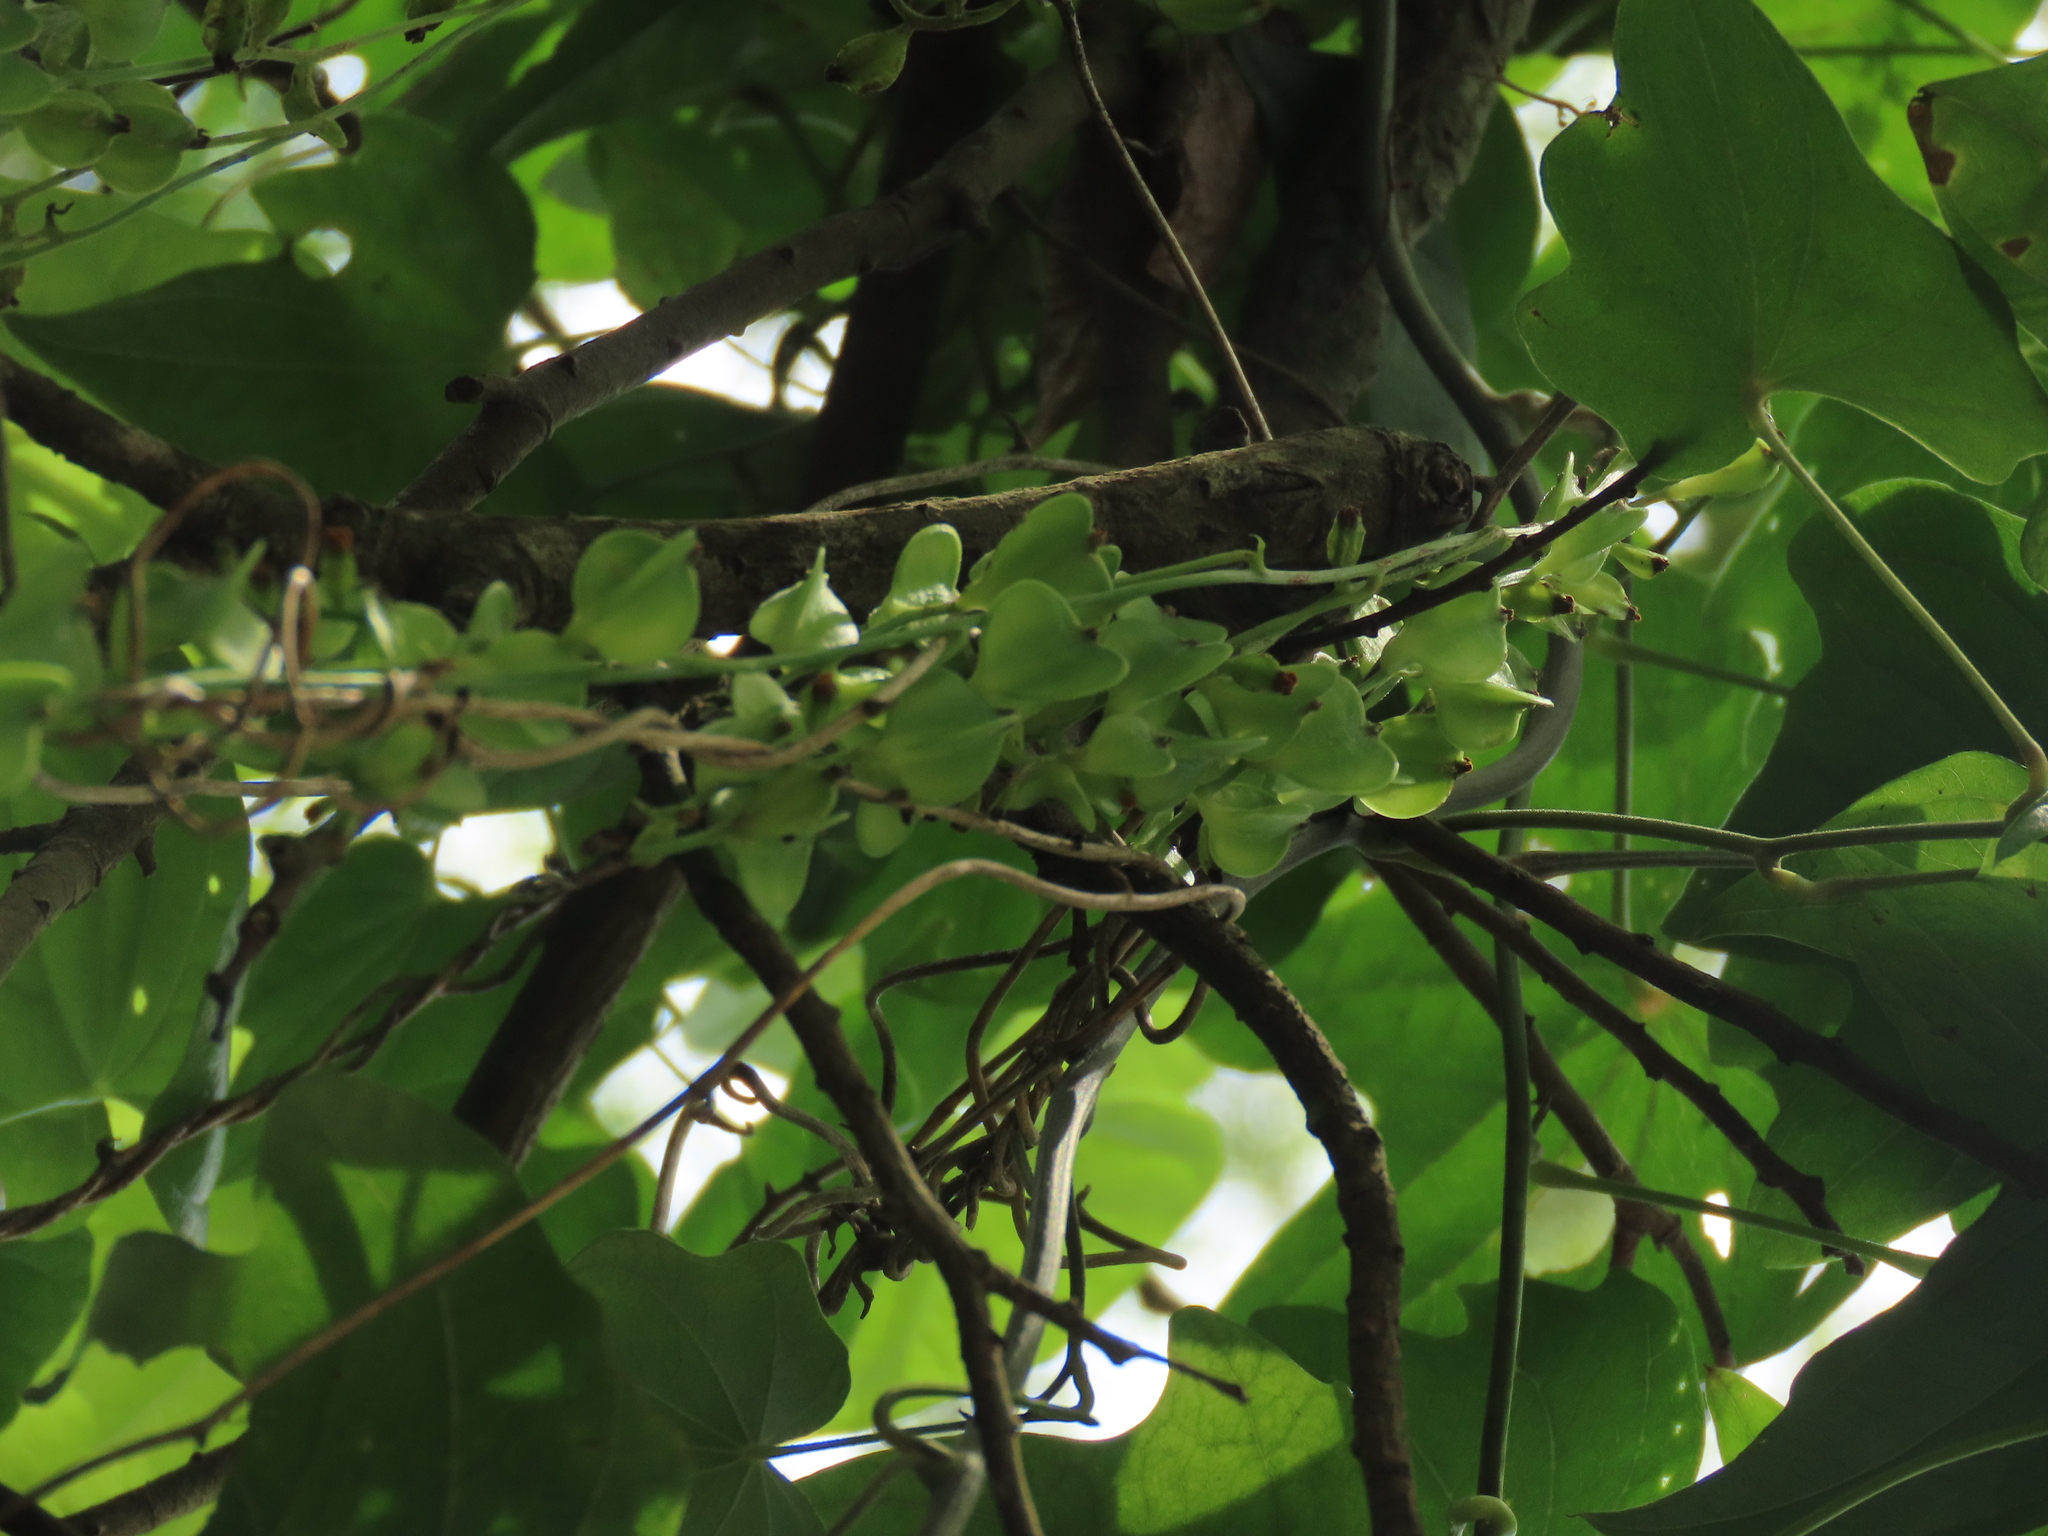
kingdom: Plantae
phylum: Tracheophyta
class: Liliopsida
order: Dioscoreales
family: Dioscoreaceae
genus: Dioscorea
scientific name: Dioscorea futschauensis
